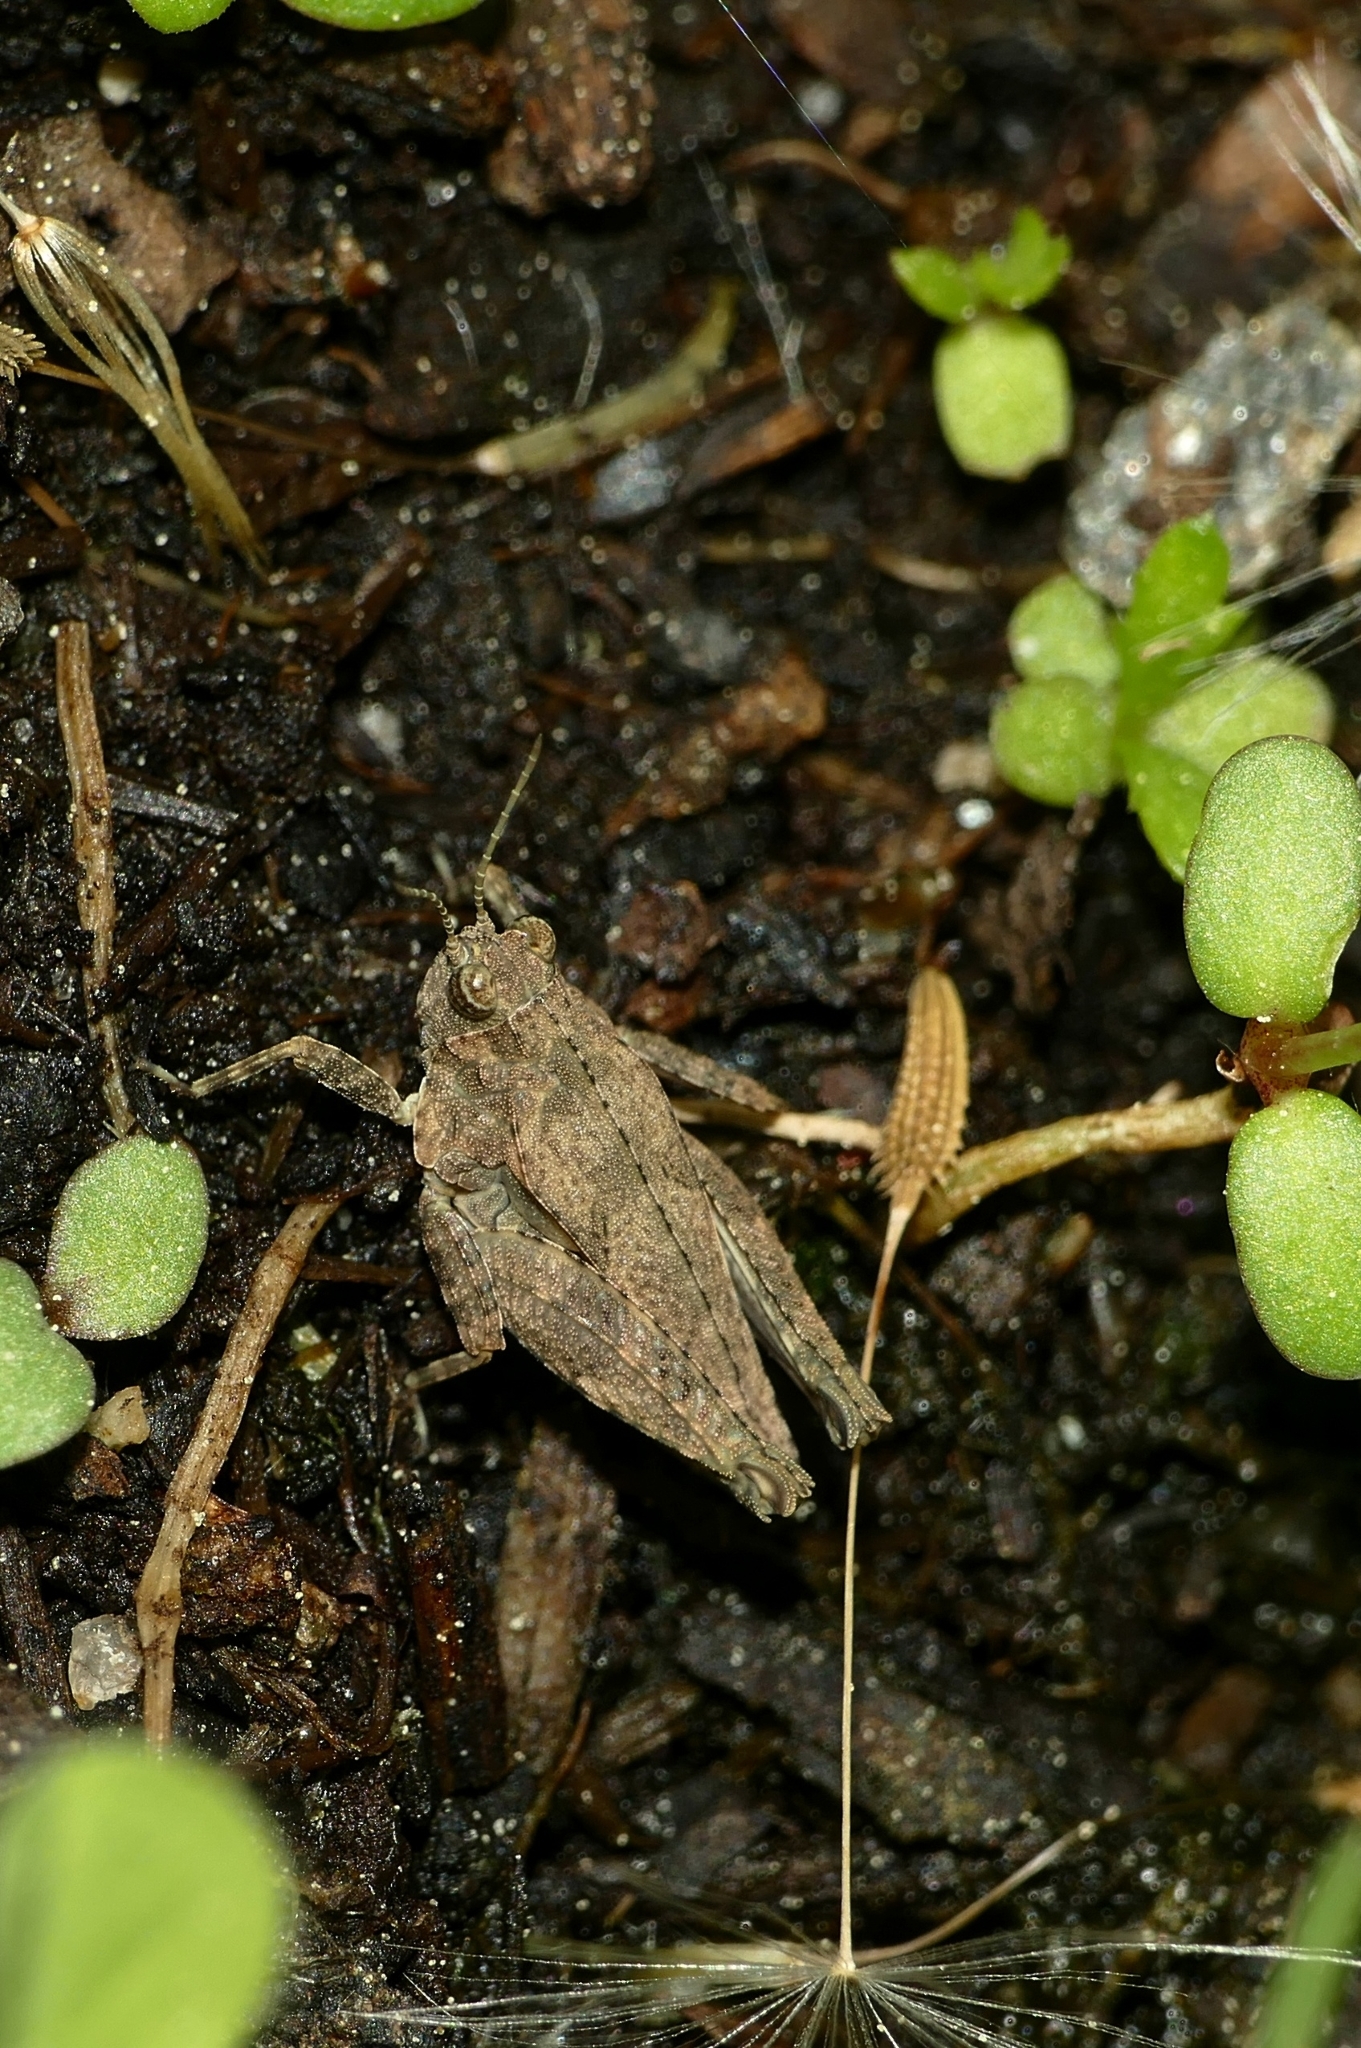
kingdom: Animalia
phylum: Arthropoda
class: Insecta
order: Orthoptera
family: Tetrigidae
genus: Tetrix
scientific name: Tetrix tenuicornis
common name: Long-horned groundhopper
